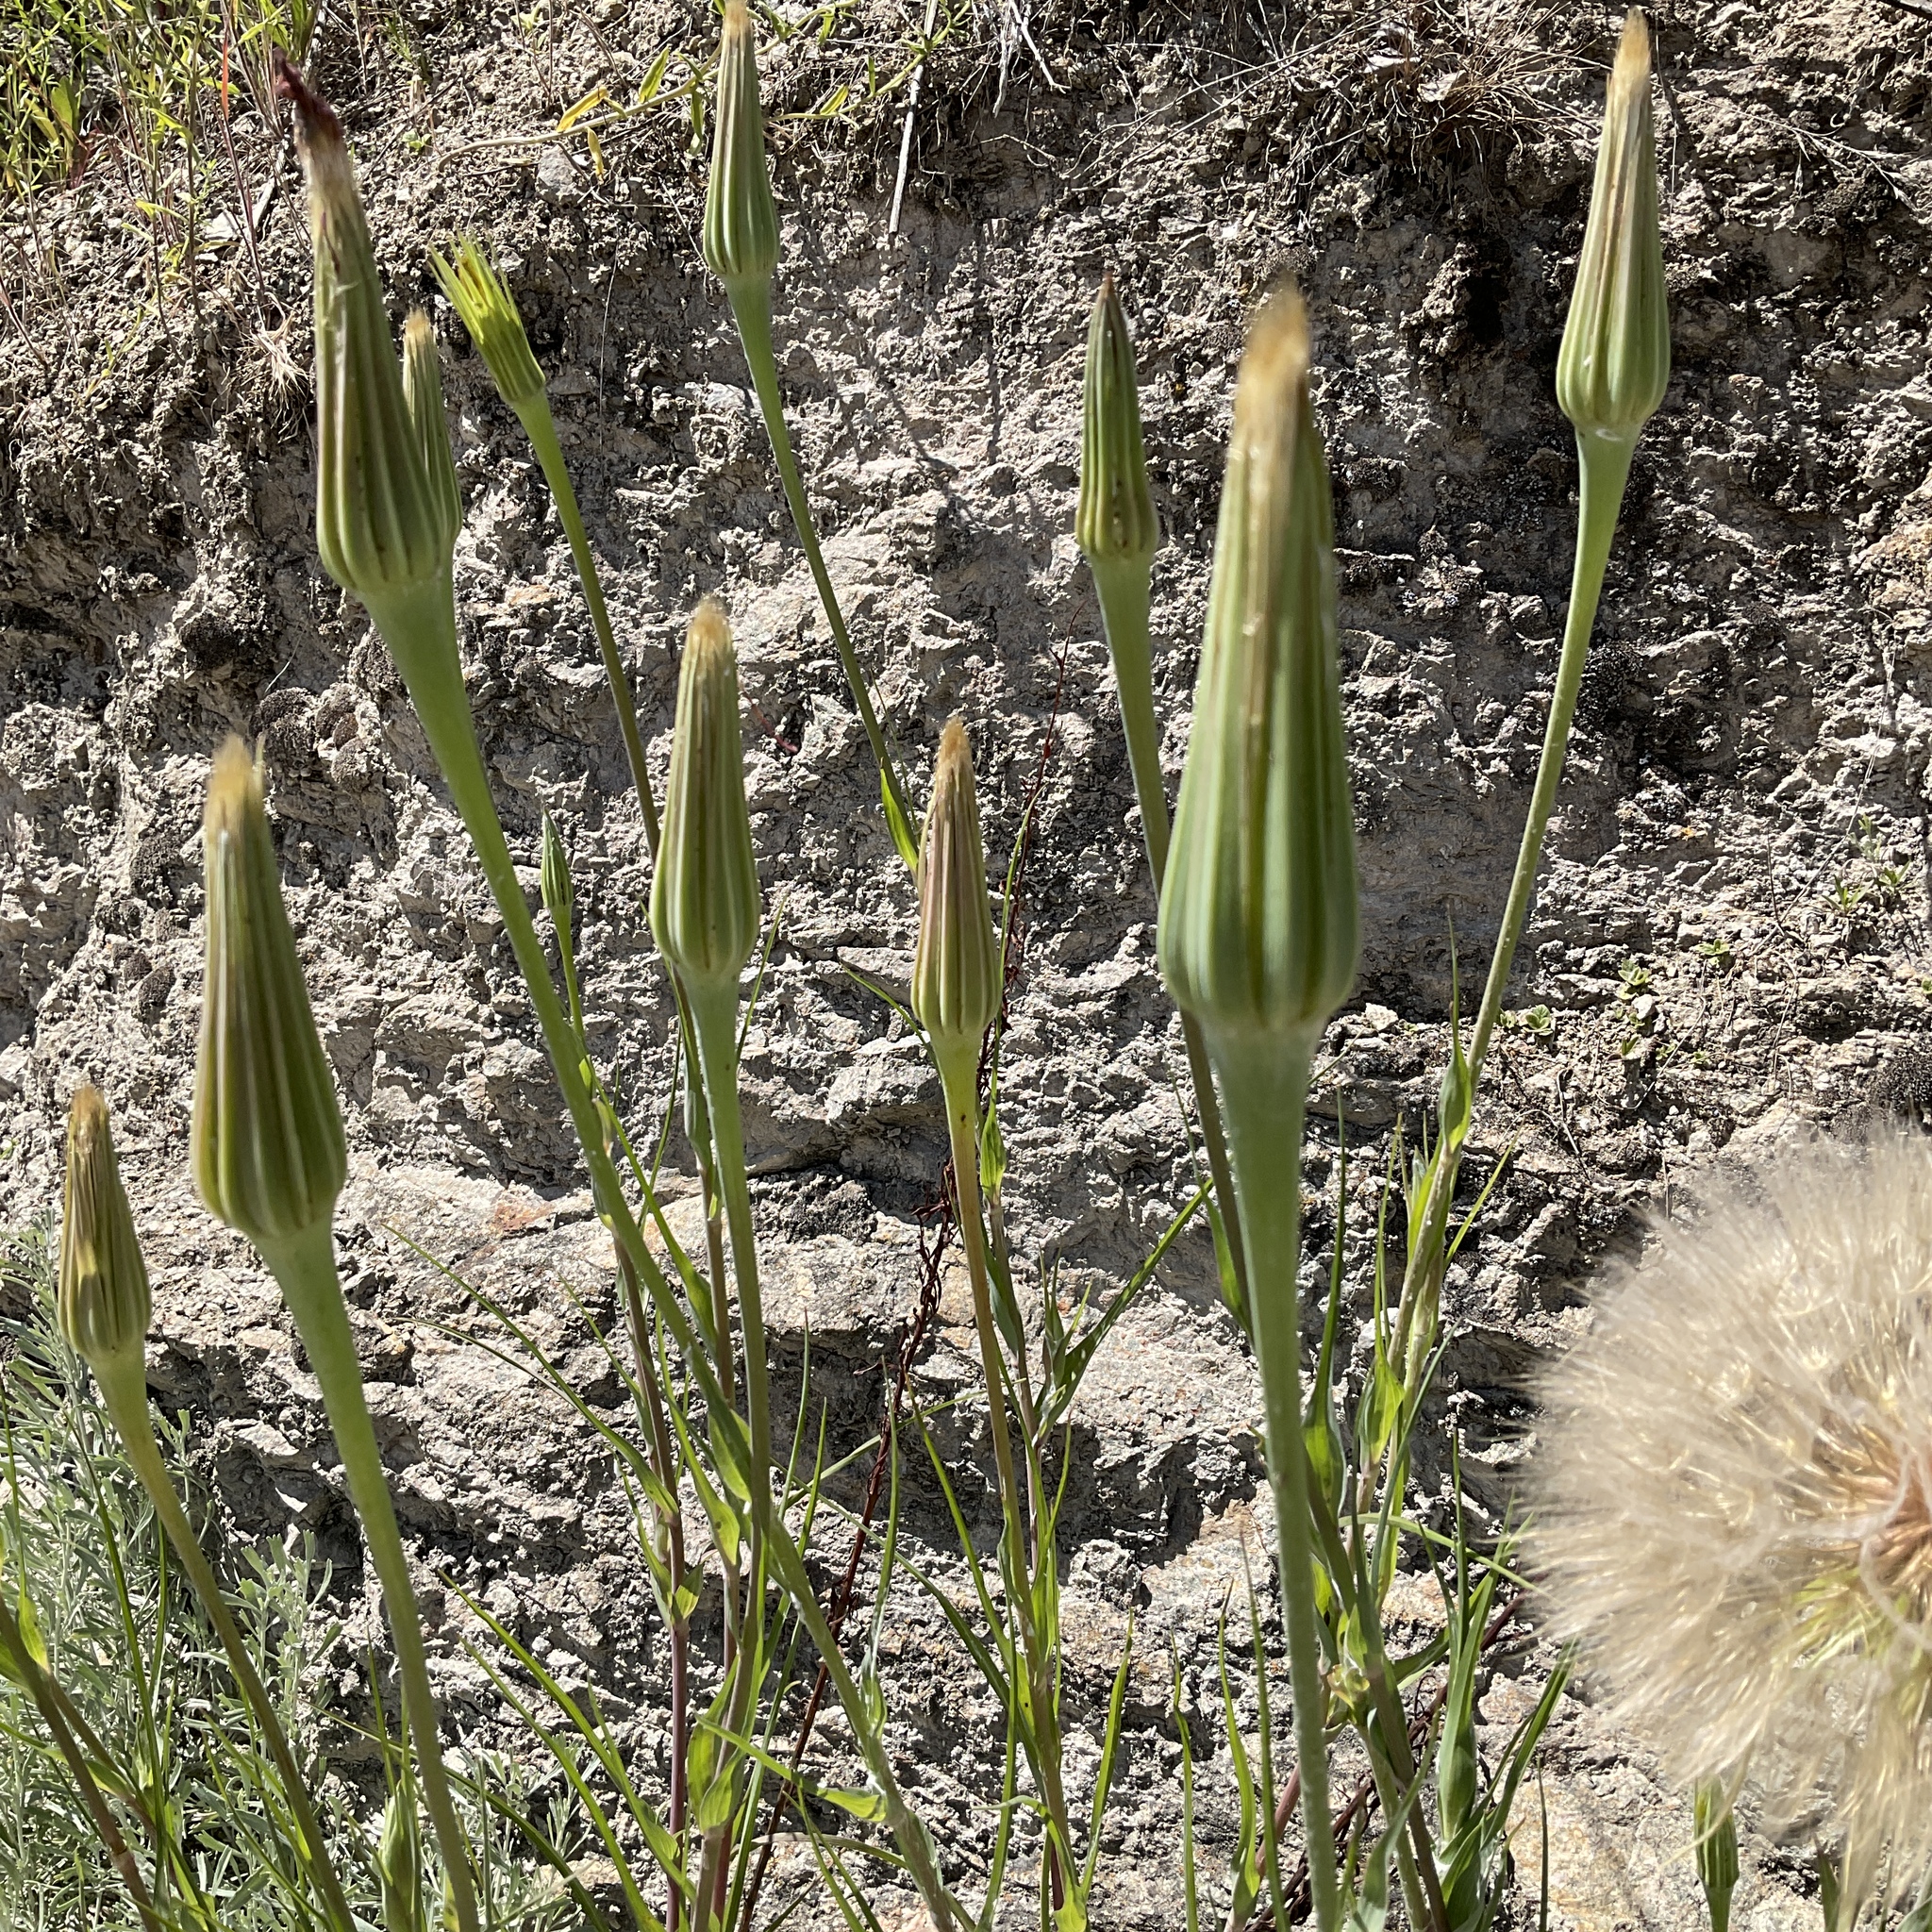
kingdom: Plantae
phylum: Tracheophyta
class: Magnoliopsida
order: Asterales
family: Asteraceae
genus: Tragopogon
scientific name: Tragopogon dubius
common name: Yellow salsify
